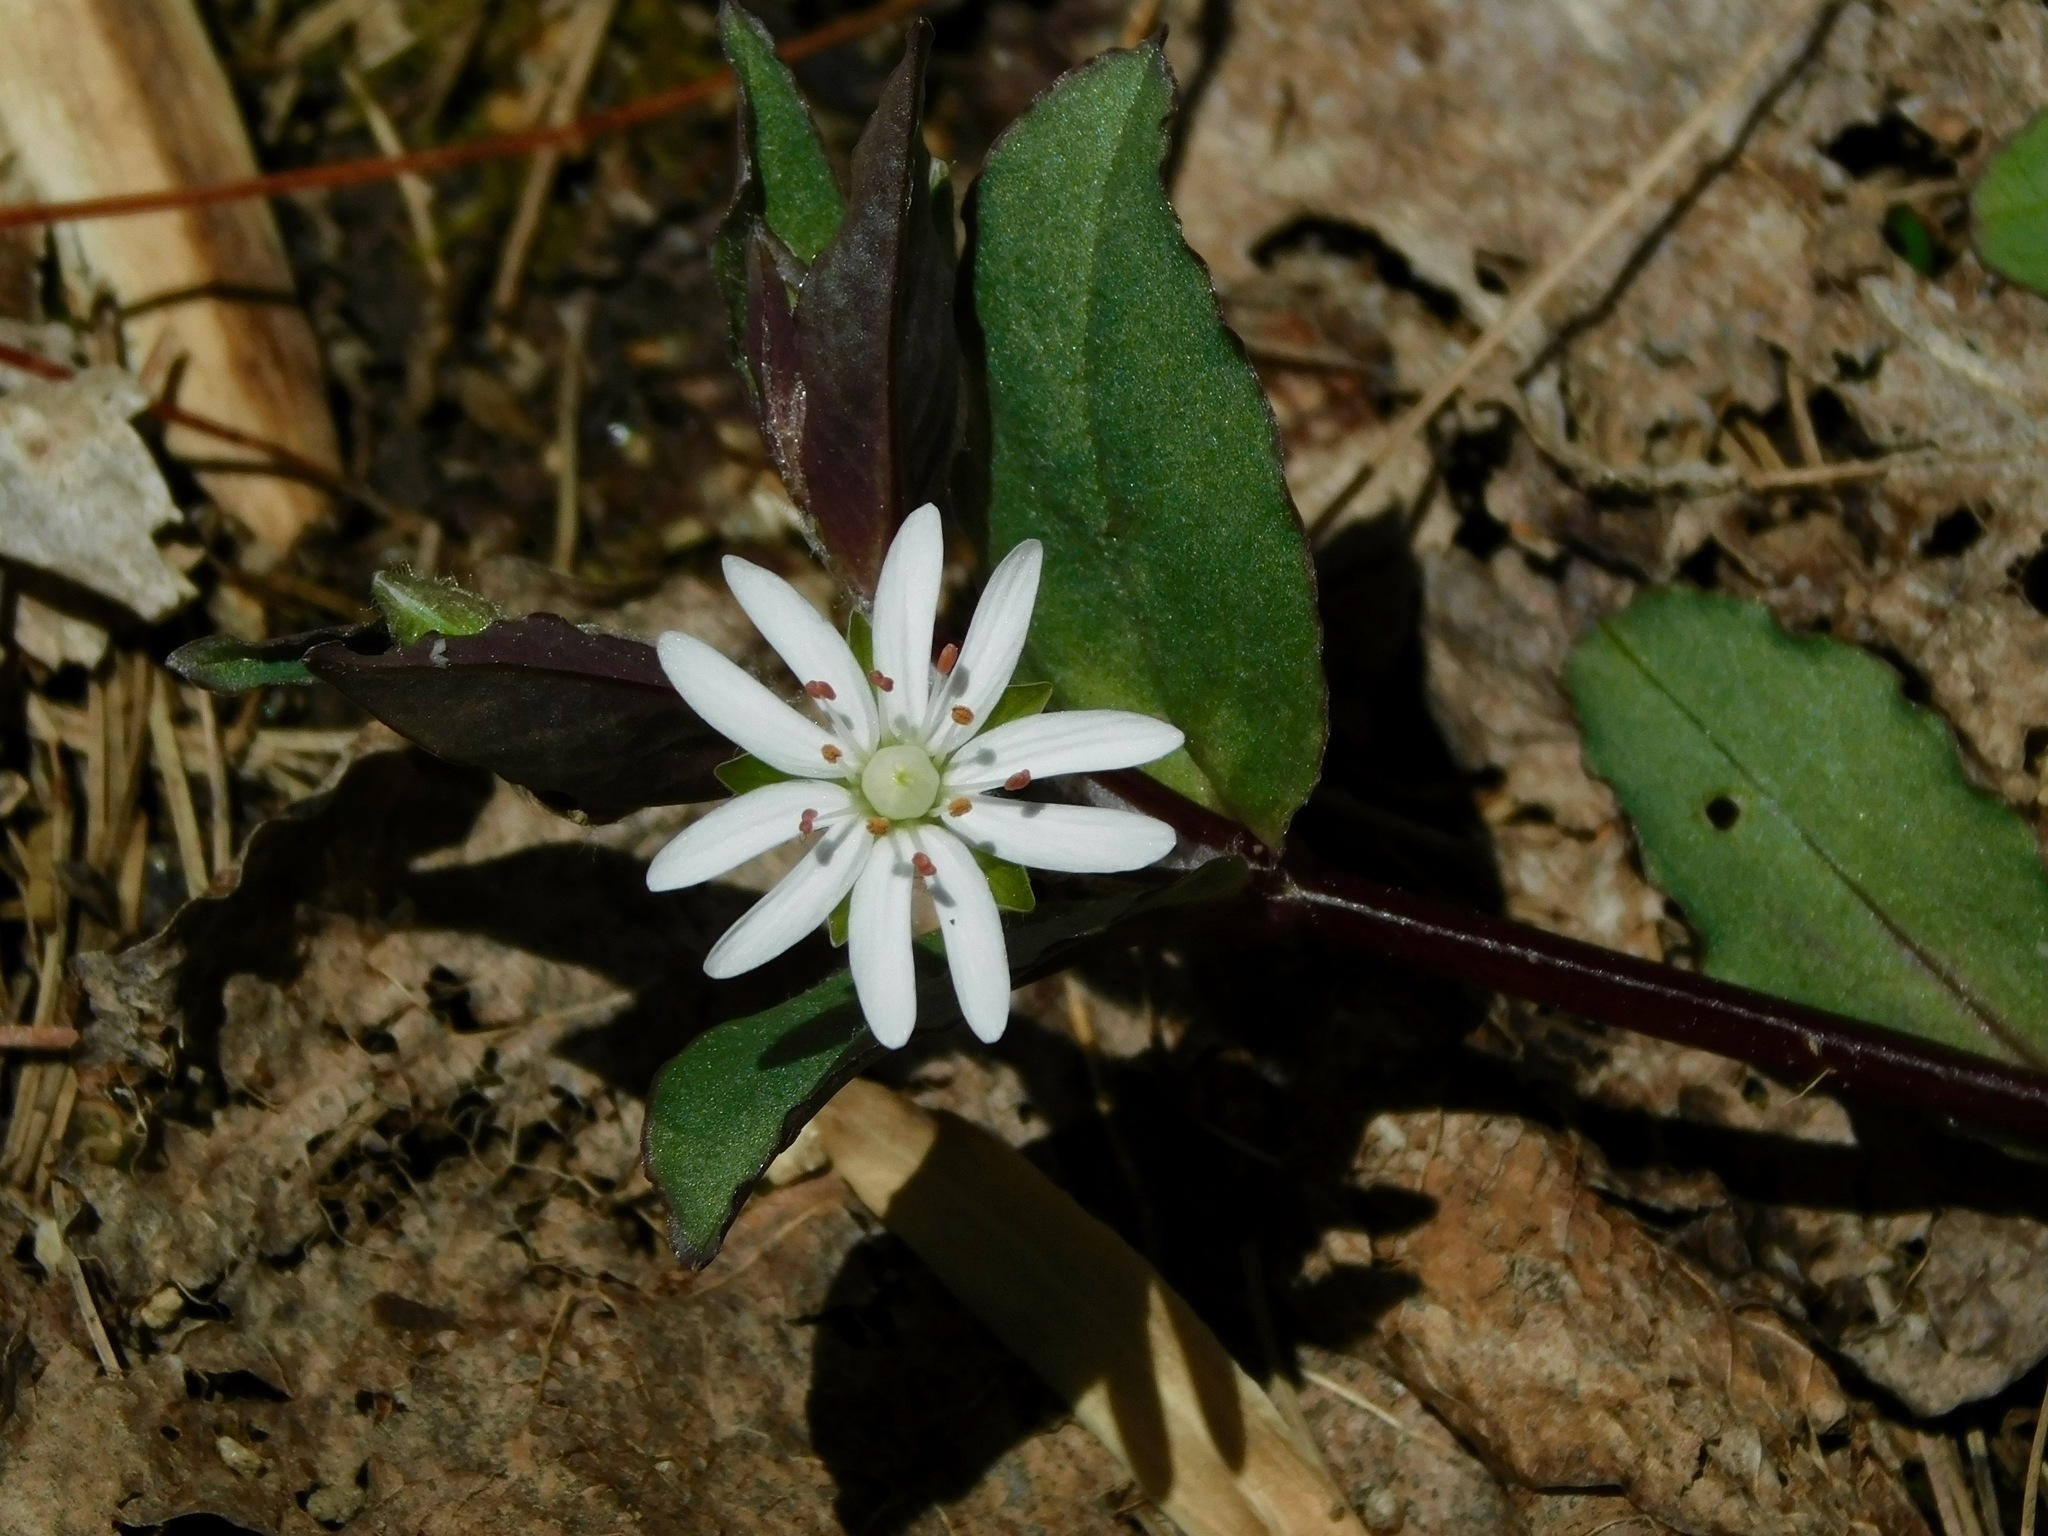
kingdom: Plantae
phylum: Tracheophyta
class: Magnoliopsida
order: Caryophyllales
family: Caryophyllaceae
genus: Stellaria
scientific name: Stellaria pubera
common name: Star chickweed
